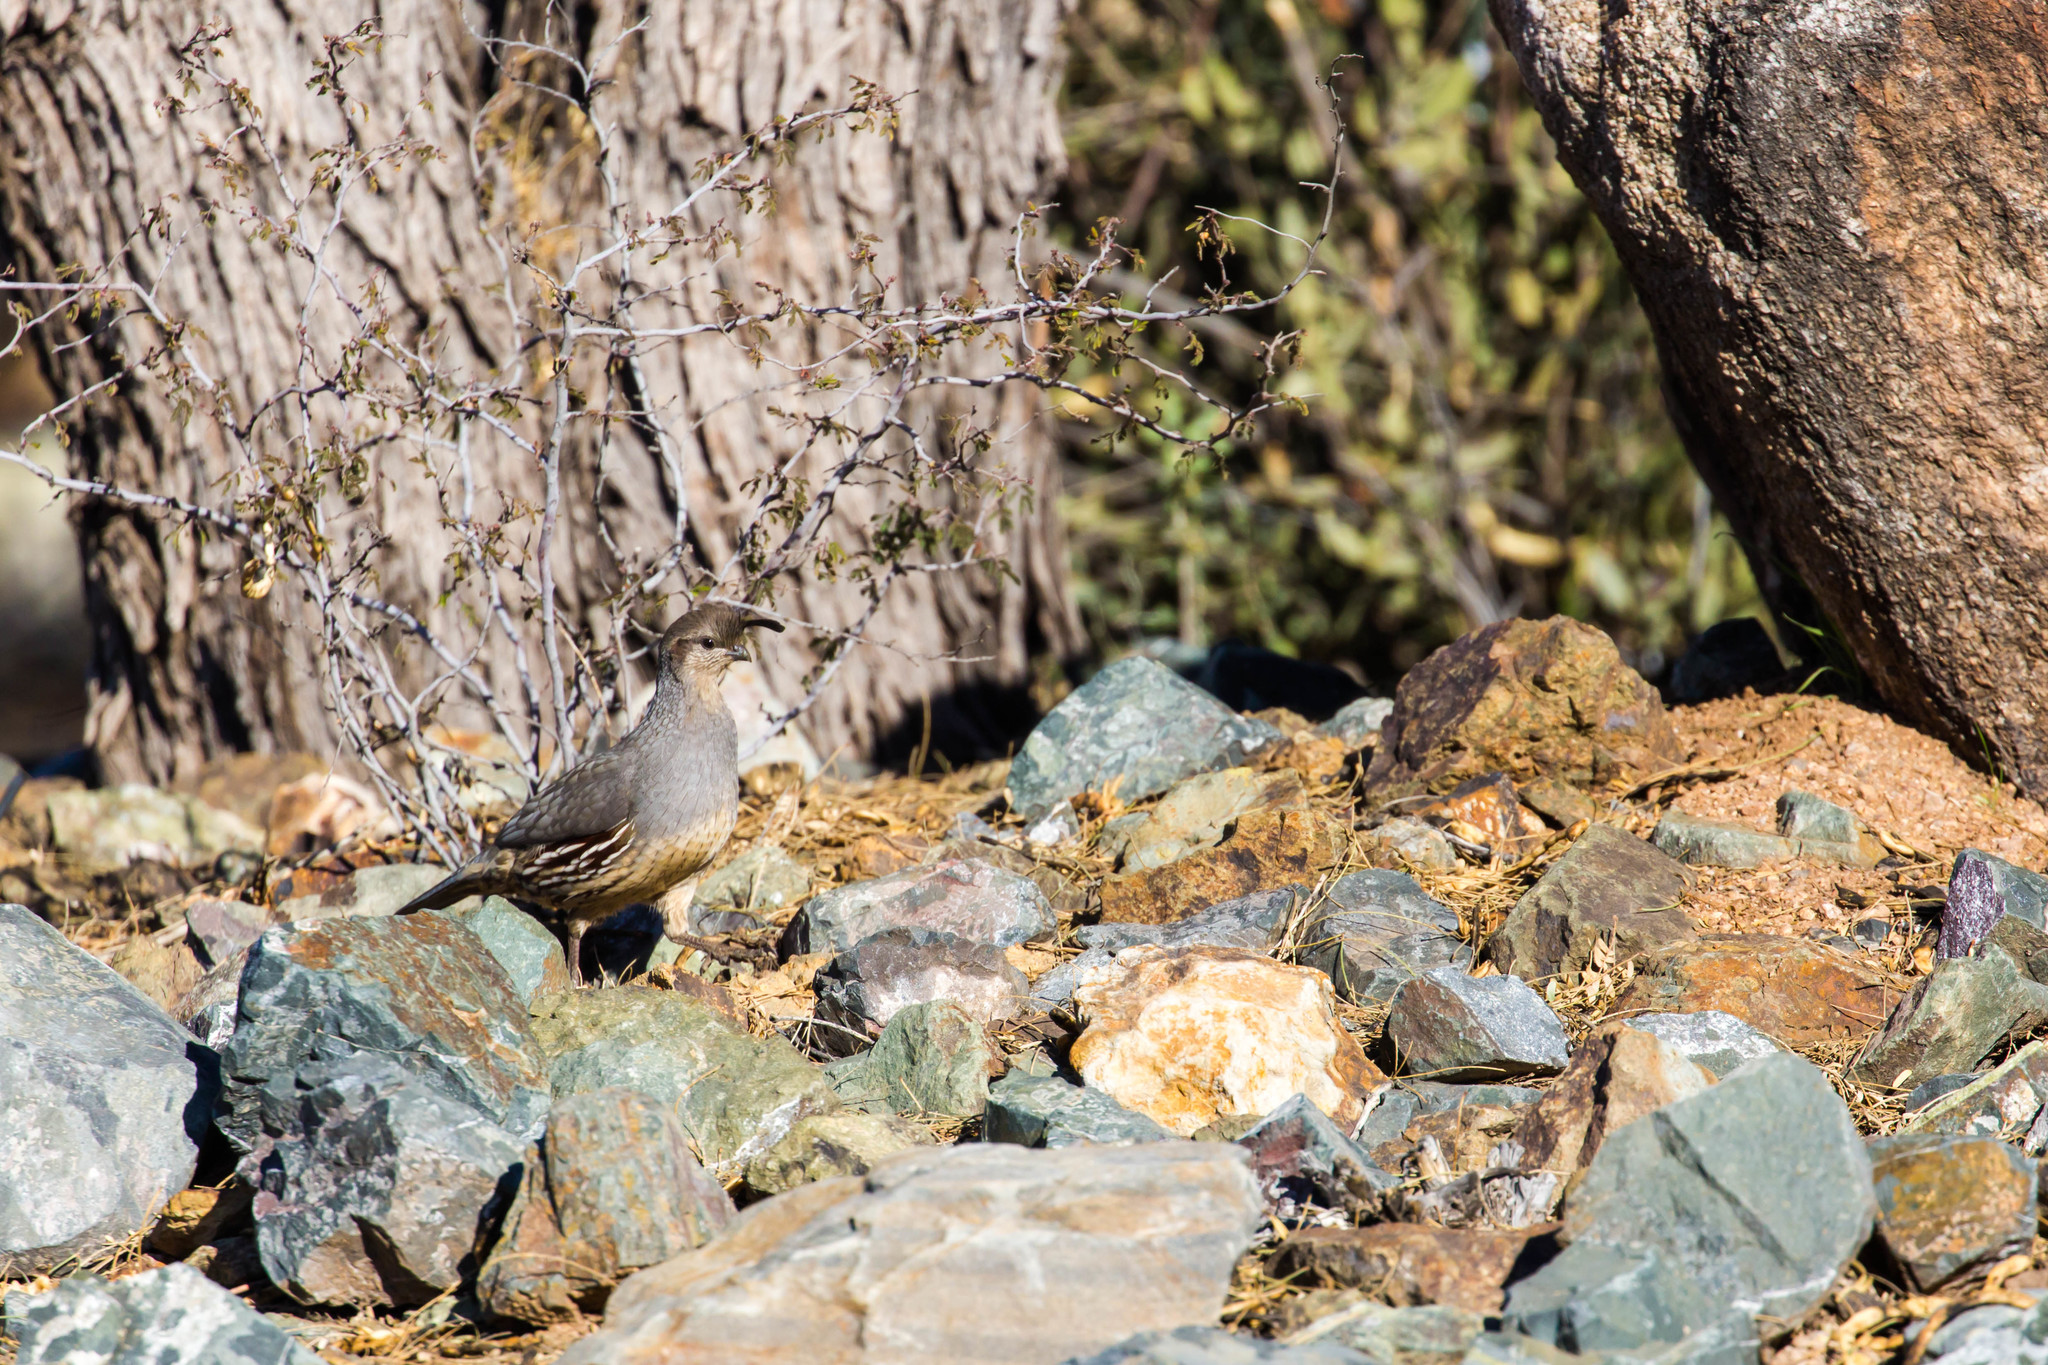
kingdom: Animalia
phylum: Chordata
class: Aves
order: Galliformes
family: Odontophoridae
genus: Callipepla
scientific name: Callipepla gambelii
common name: Gambel's quail
